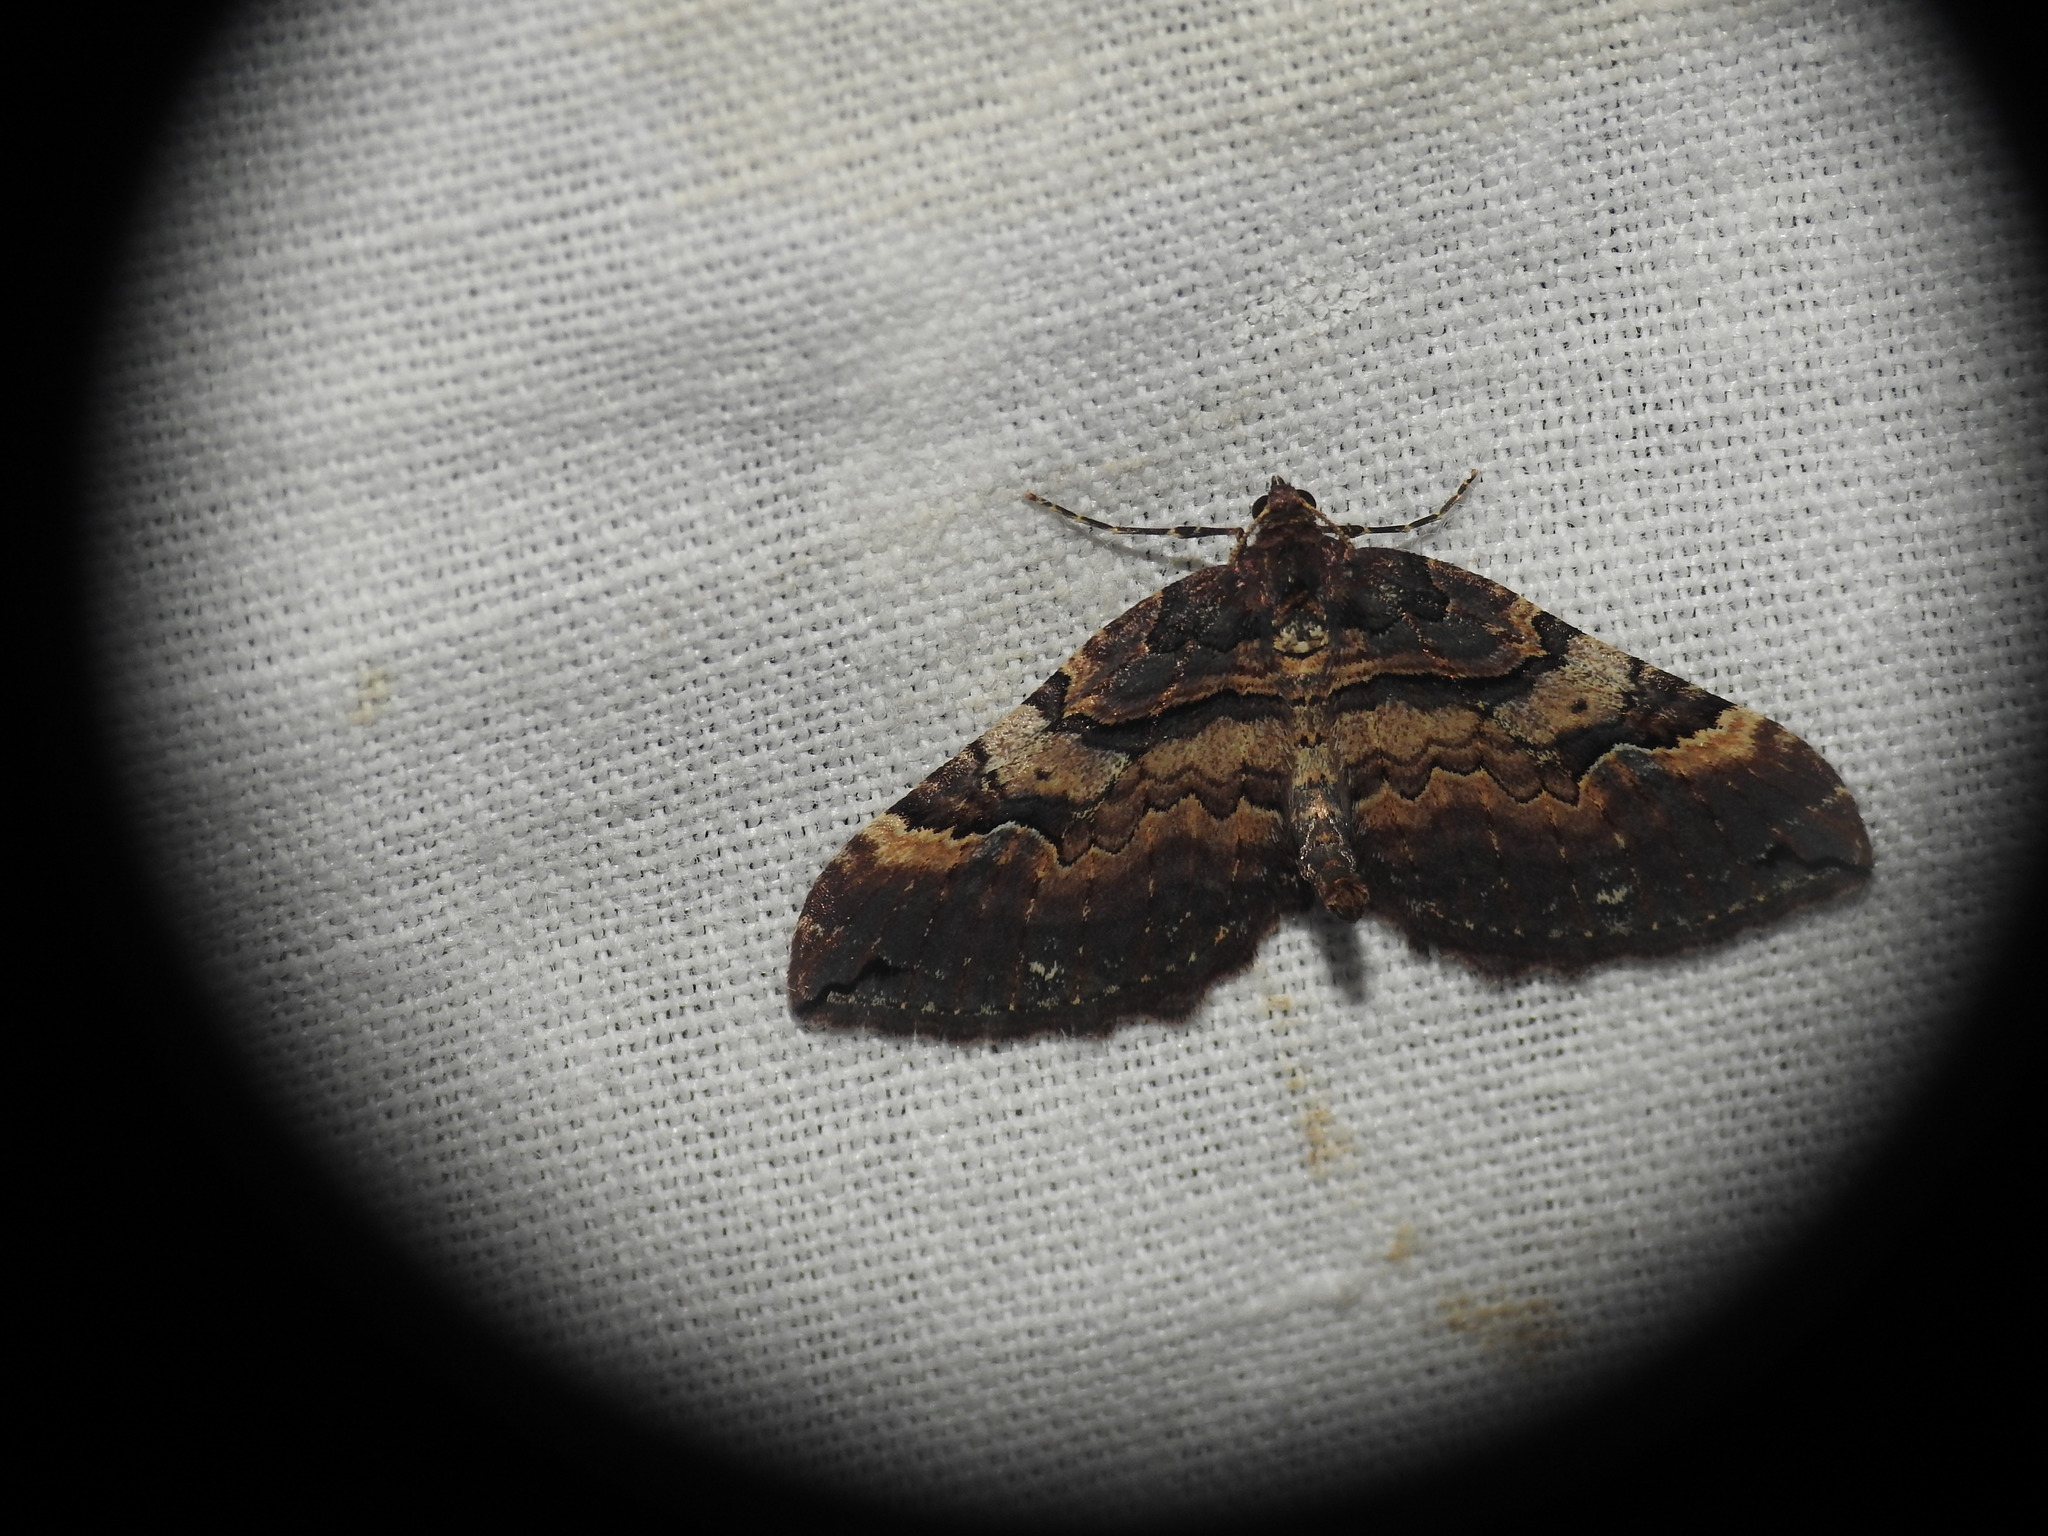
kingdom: Animalia
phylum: Arthropoda
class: Insecta
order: Lepidoptera
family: Geometridae
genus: Anticlea
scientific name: Anticlea badiata
